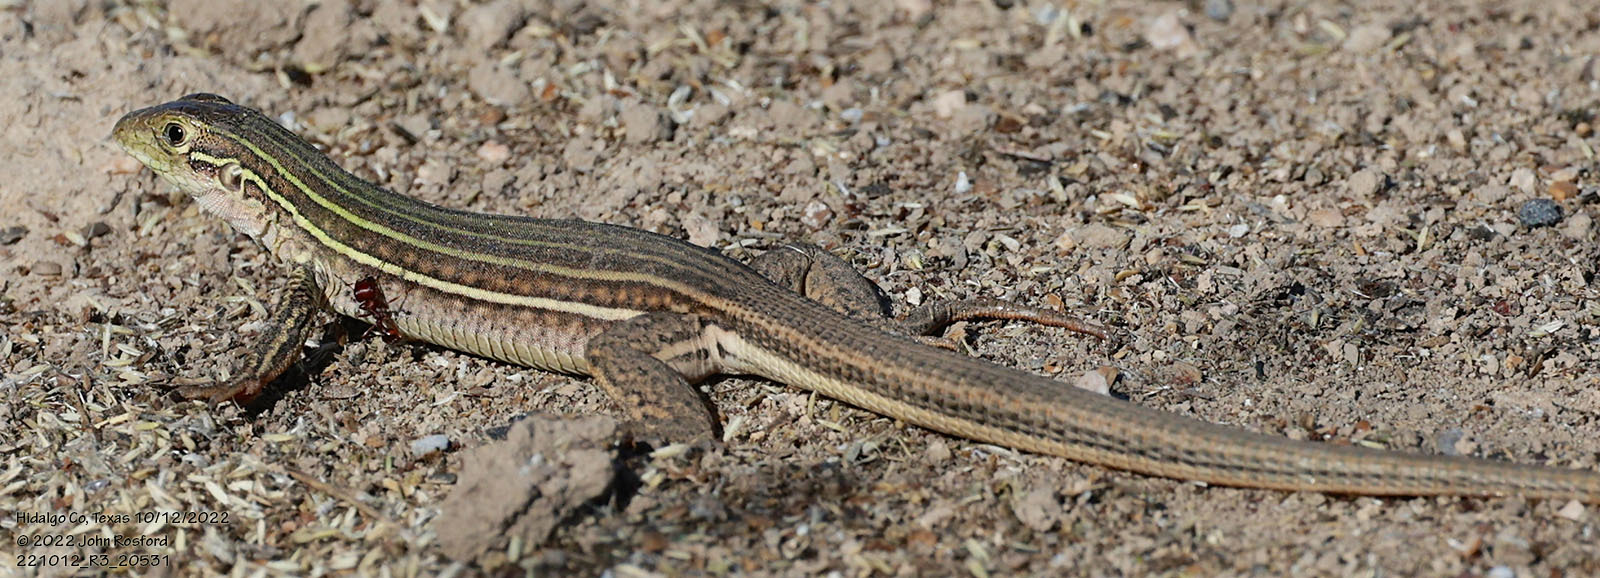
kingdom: Animalia
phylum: Chordata
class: Squamata
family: Teiidae
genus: Aspidoscelis
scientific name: Aspidoscelis gularis
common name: Eastern spotted whiptail
